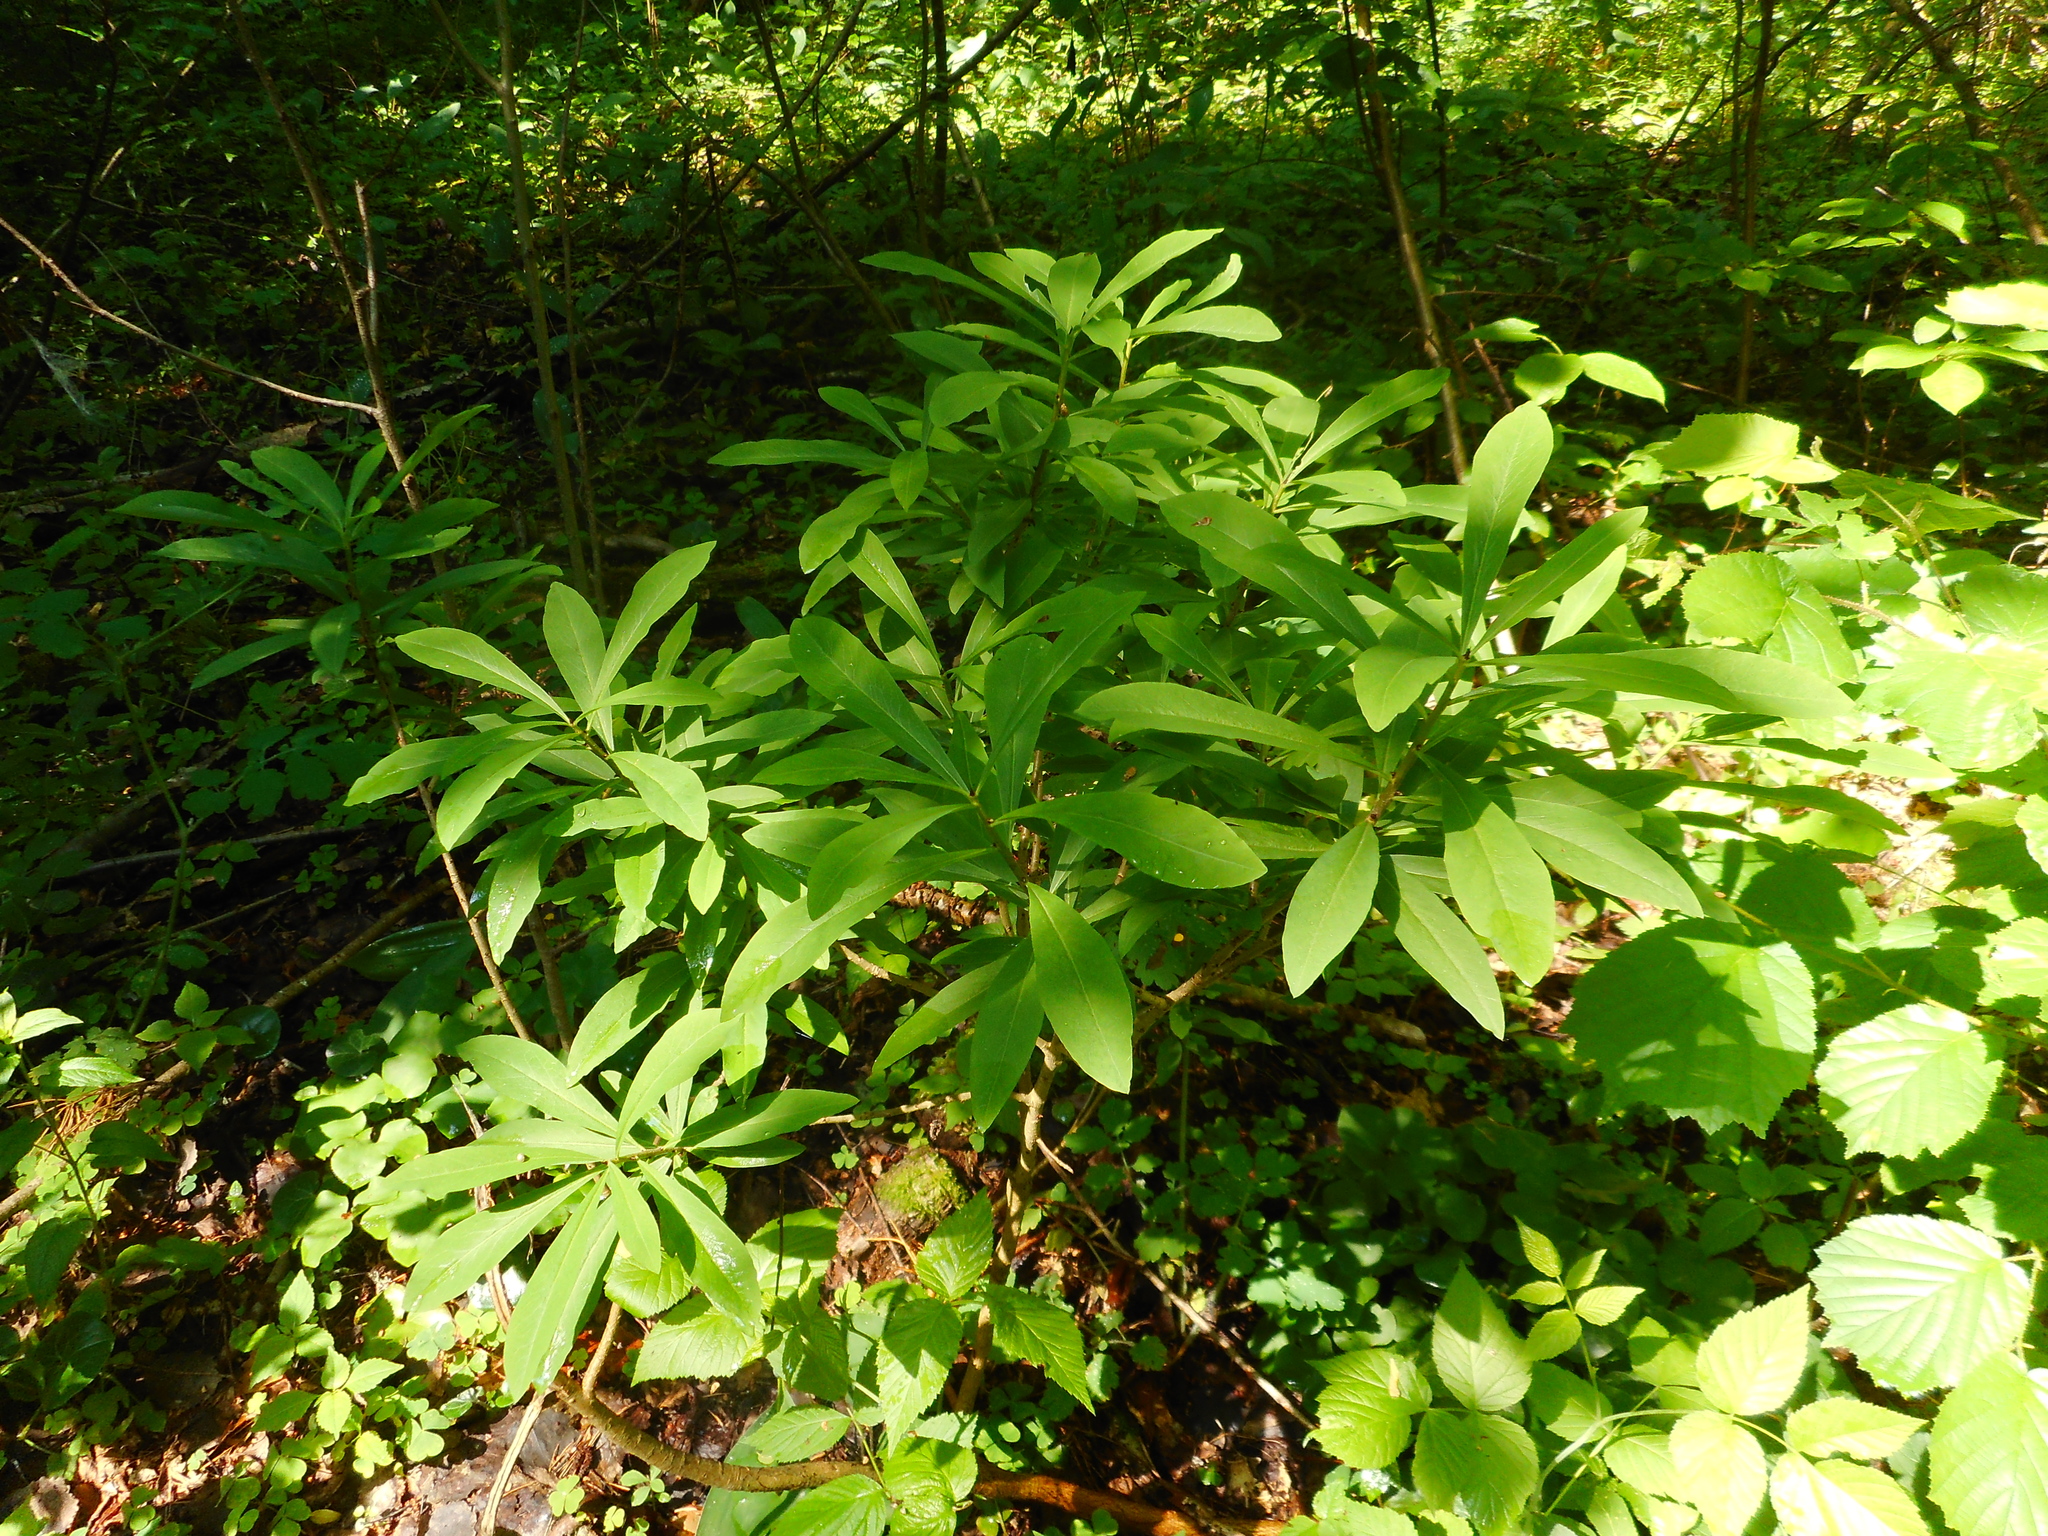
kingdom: Plantae
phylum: Tracheophyta
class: Magnoliopsida
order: Malvales
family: Thymelaeaceae
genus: Daphne
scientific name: Daphne mezereum
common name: Mezereon
